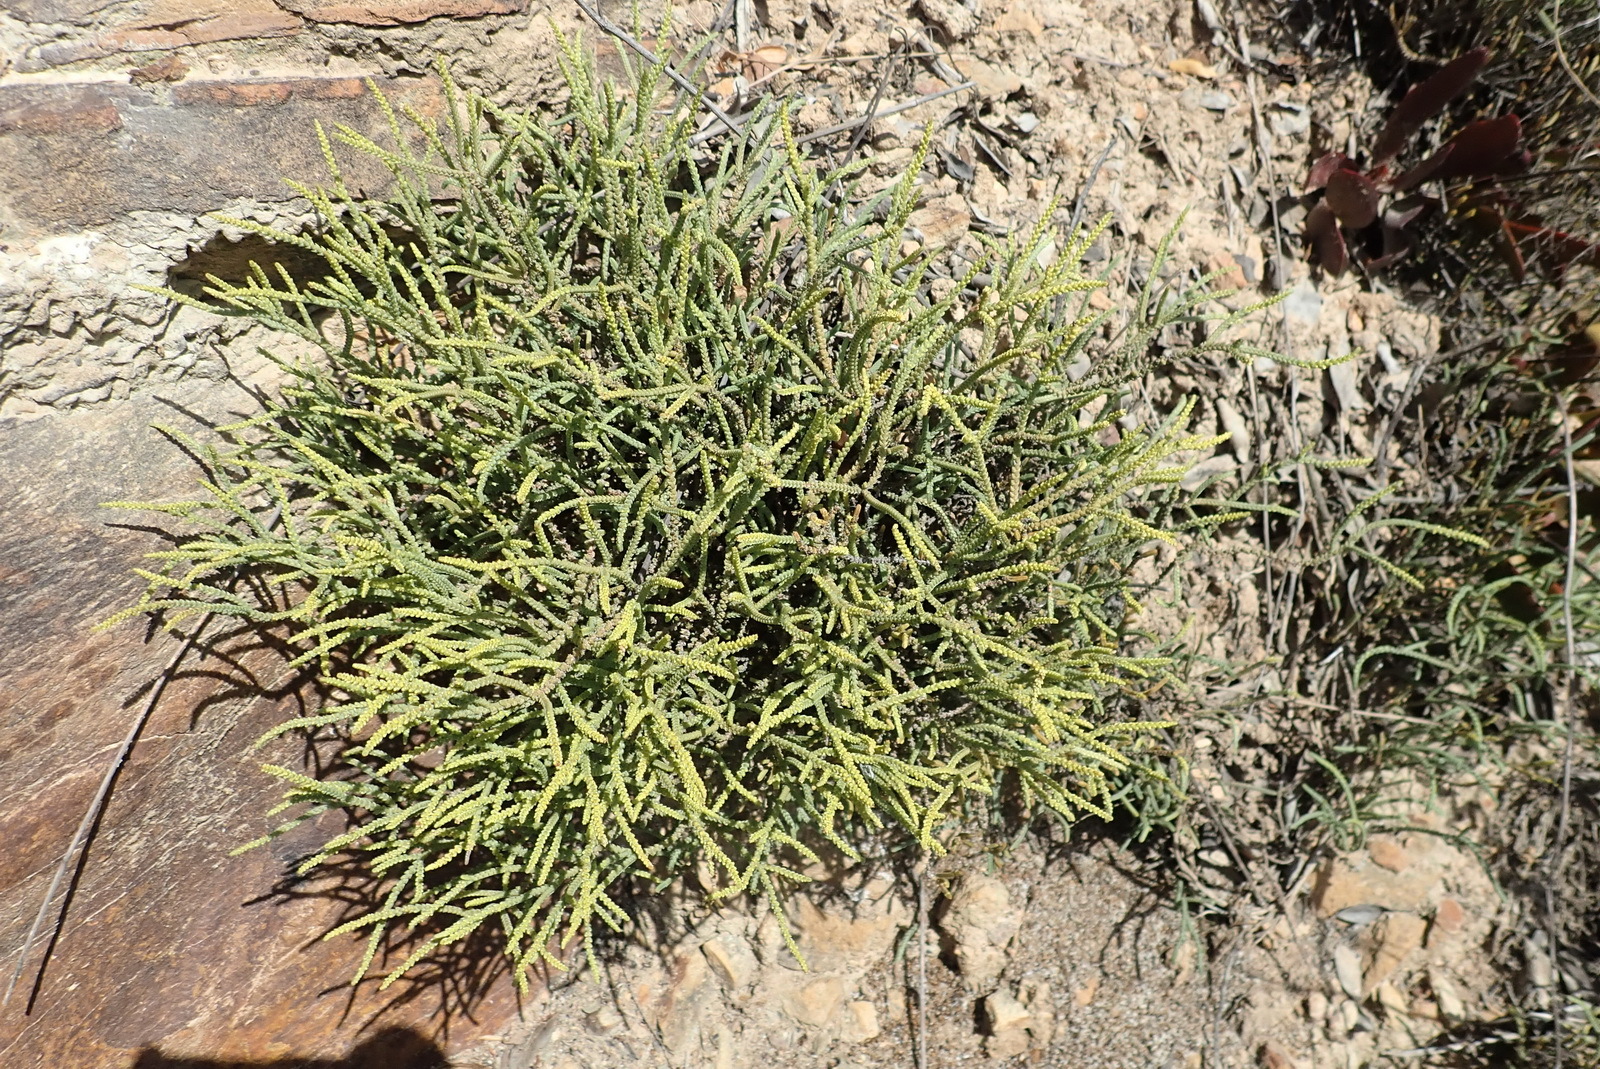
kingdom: Plantae
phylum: Tracheophyta
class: Magnoliopsida
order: Saxifragales
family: Crassulaceae
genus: Crassula
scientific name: Crassula muscosa
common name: Toy-cypress
